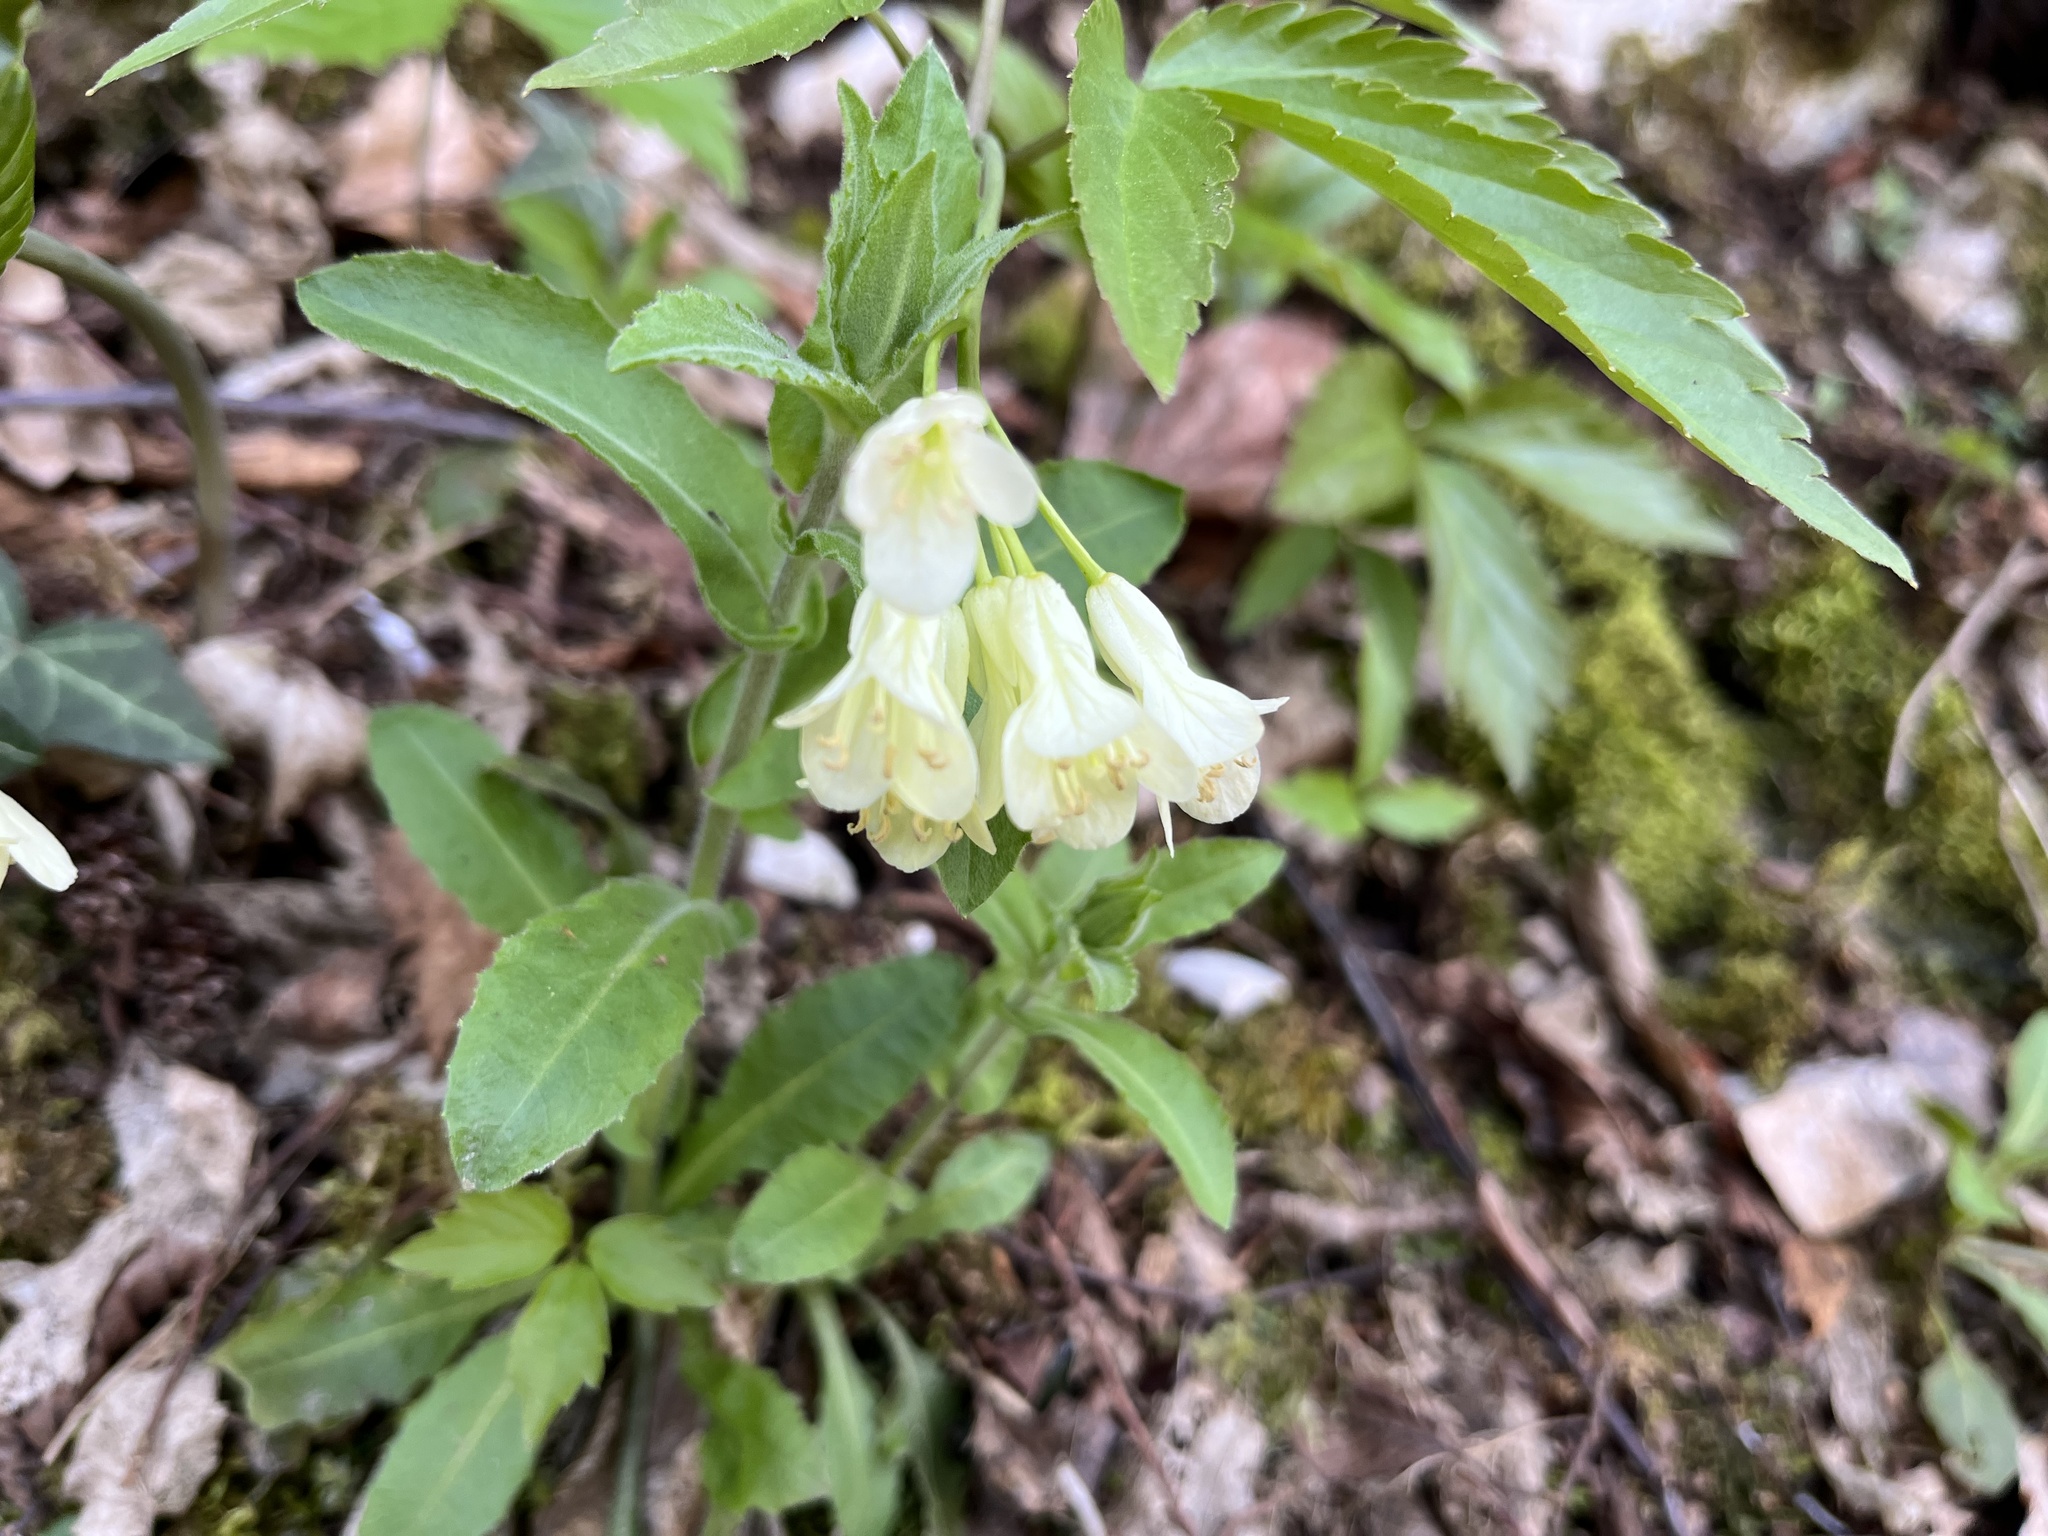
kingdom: Plantae
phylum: Tracheophyta
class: Magnoliopsida
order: Brassicales
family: Brassicaceae
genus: Cardamine
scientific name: Cardamine enneaphyllos
